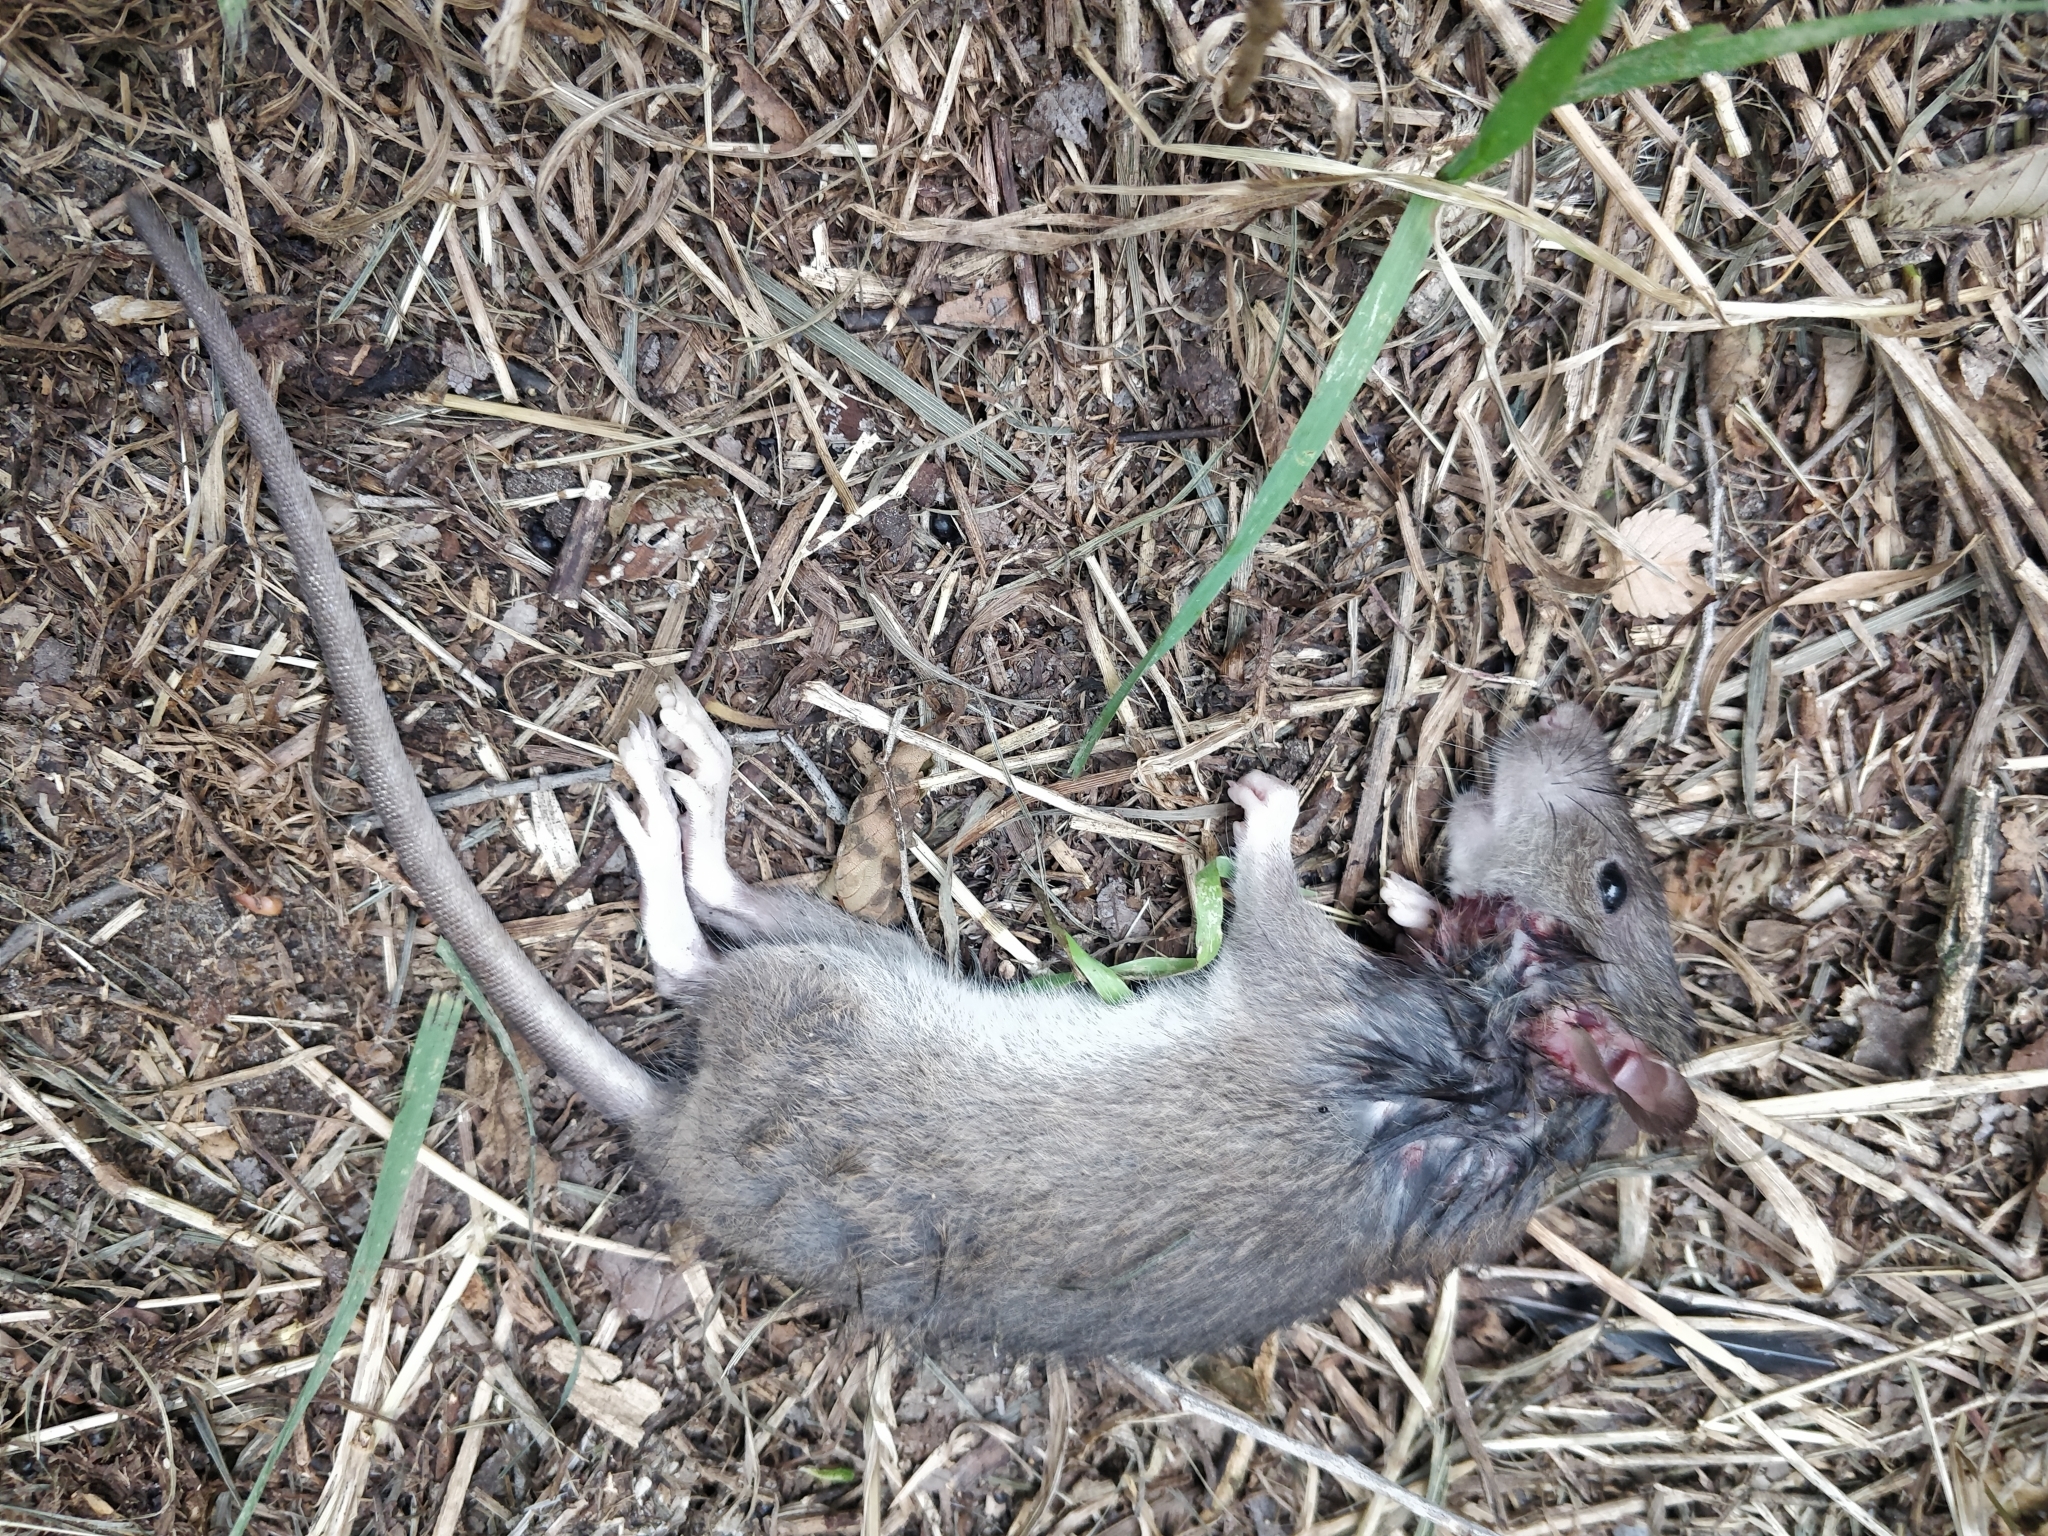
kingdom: Animalia
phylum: Chordata
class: Mammalia
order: Rodentia
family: Muridae
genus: Rattus
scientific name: Rattus norvegicus
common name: Brown rat
